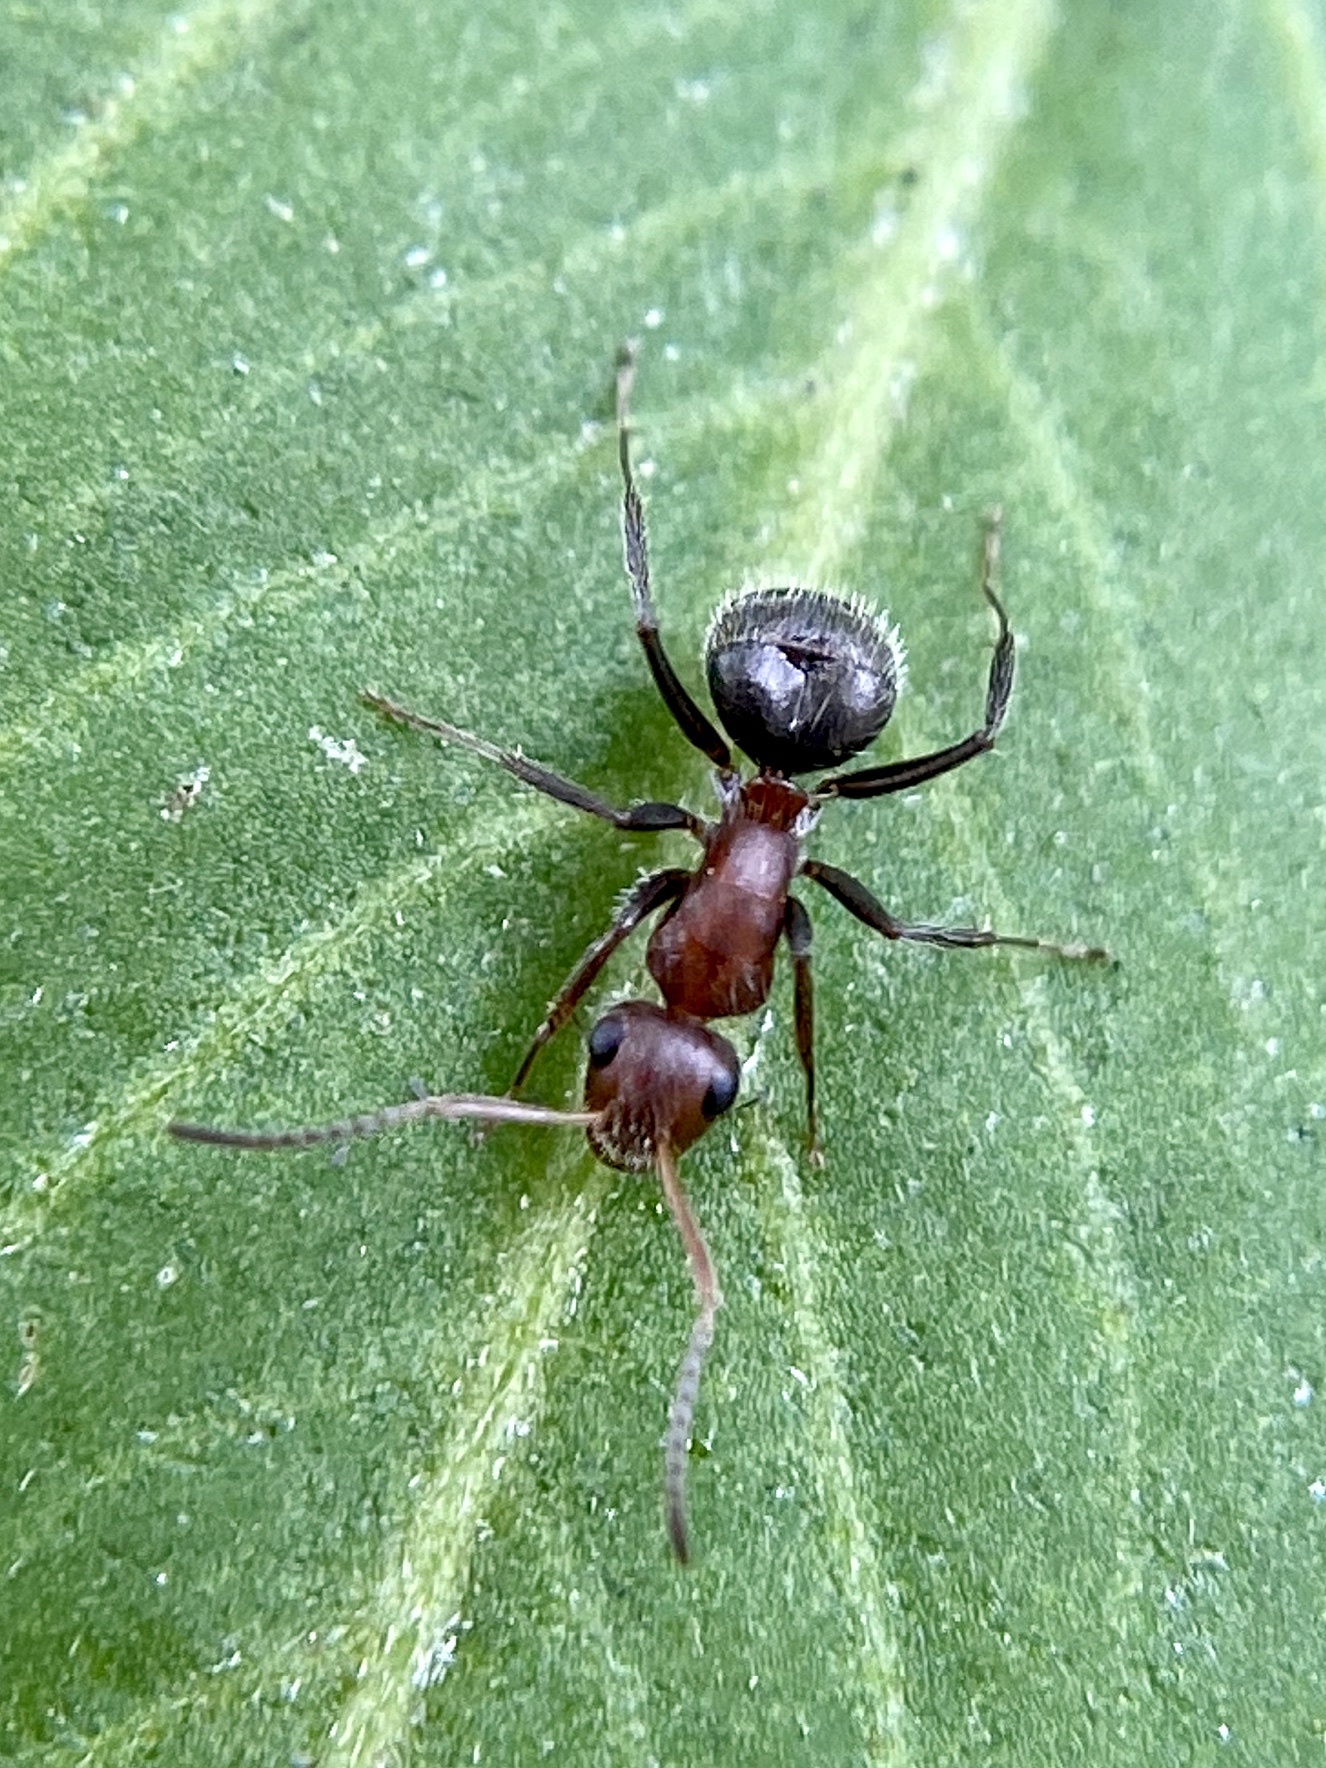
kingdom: Animalia
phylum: Arthropoda
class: Insecta
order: Hymenoptera
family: Formicidae
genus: Camponotus
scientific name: Camponotus planatus
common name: Compact carpenter ant
